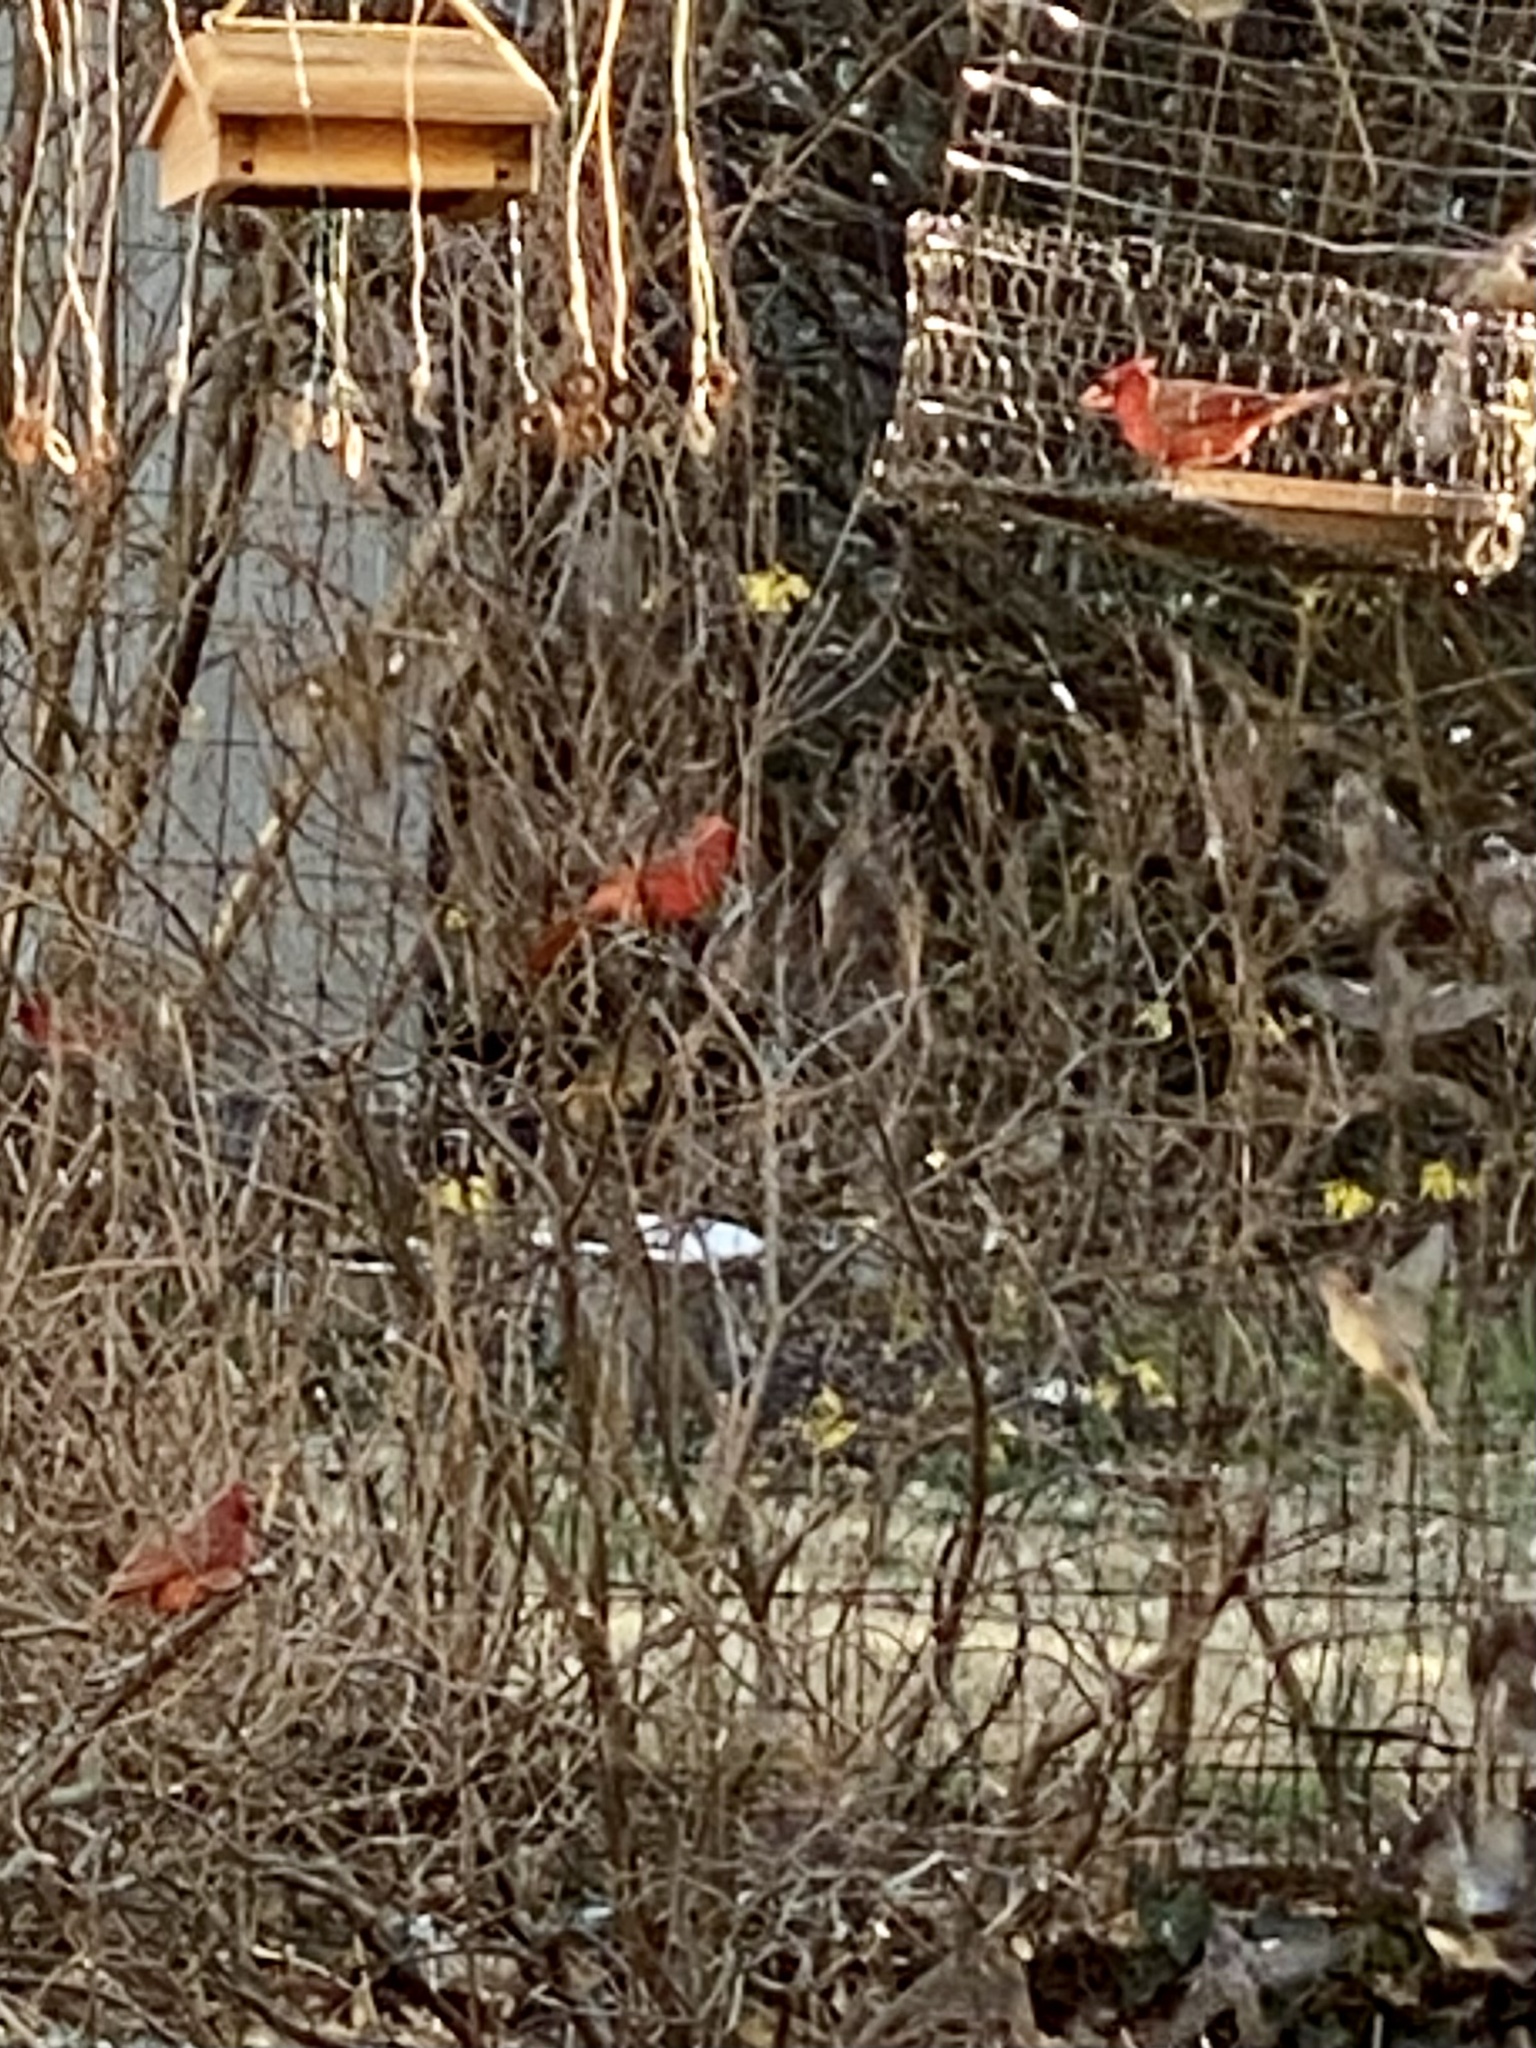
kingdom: Animalia
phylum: Chordata
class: Aves
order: Passeriformes
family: Cardinalidae
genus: Cardinalis
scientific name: Cardinalis cardinalis
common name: Northern cardinal
